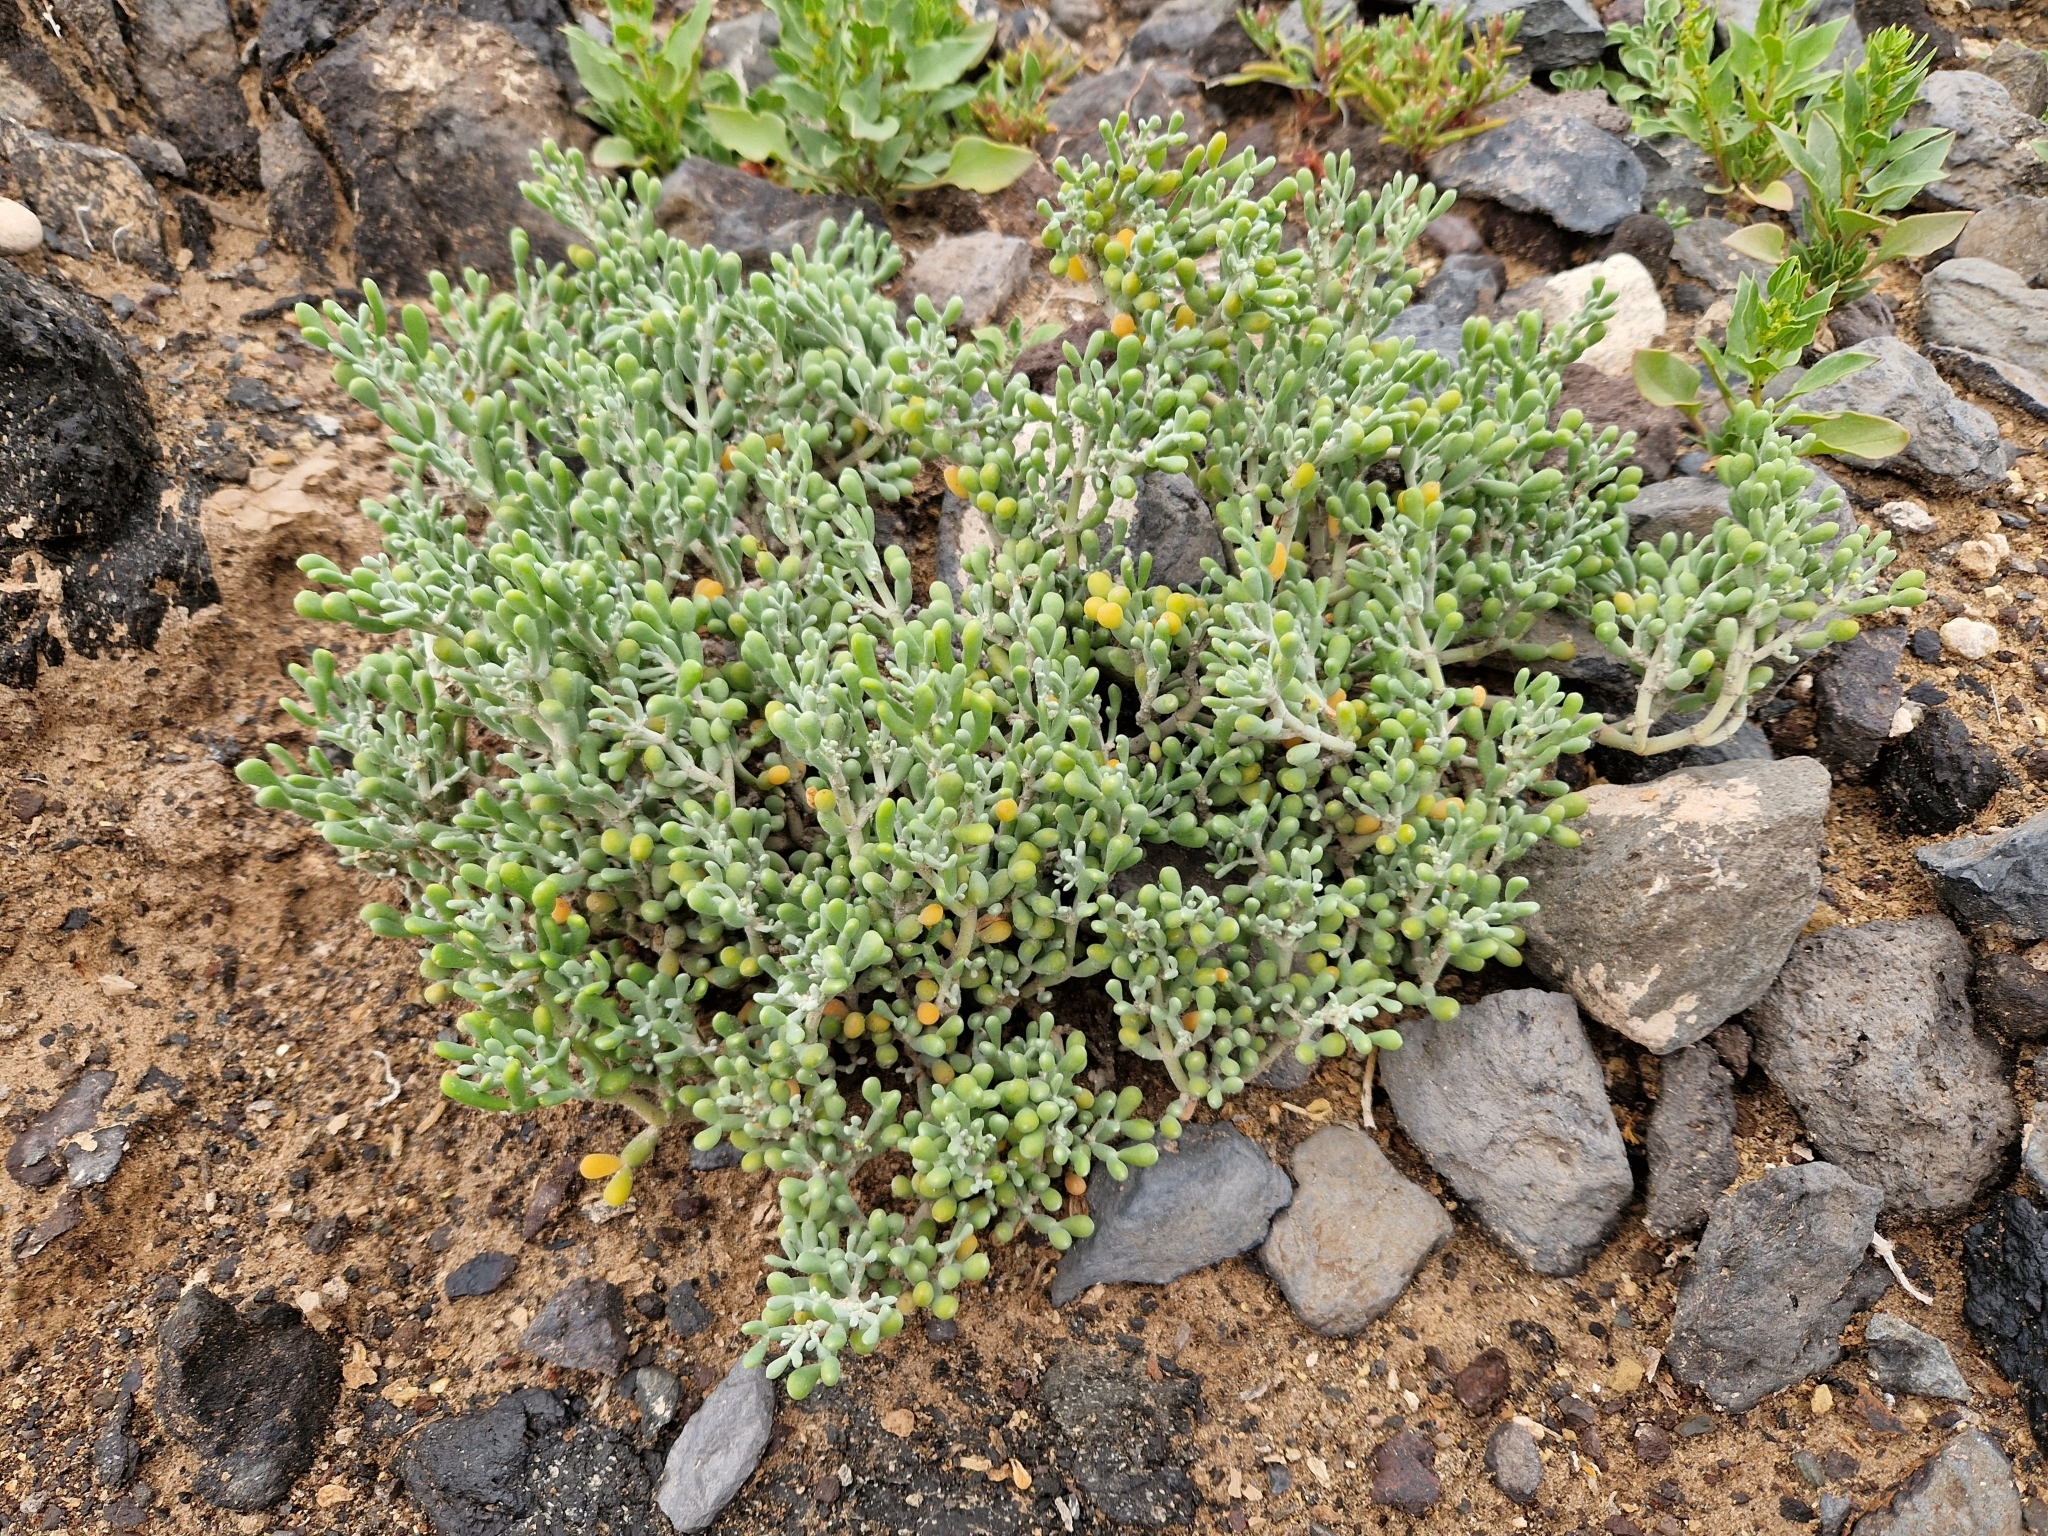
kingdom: Plantae
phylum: Tracheophyta
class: Magnoliopsida
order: Zygophyllales
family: Zygophyllaceae
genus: Tetraena
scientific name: Tetraena fontanesii
